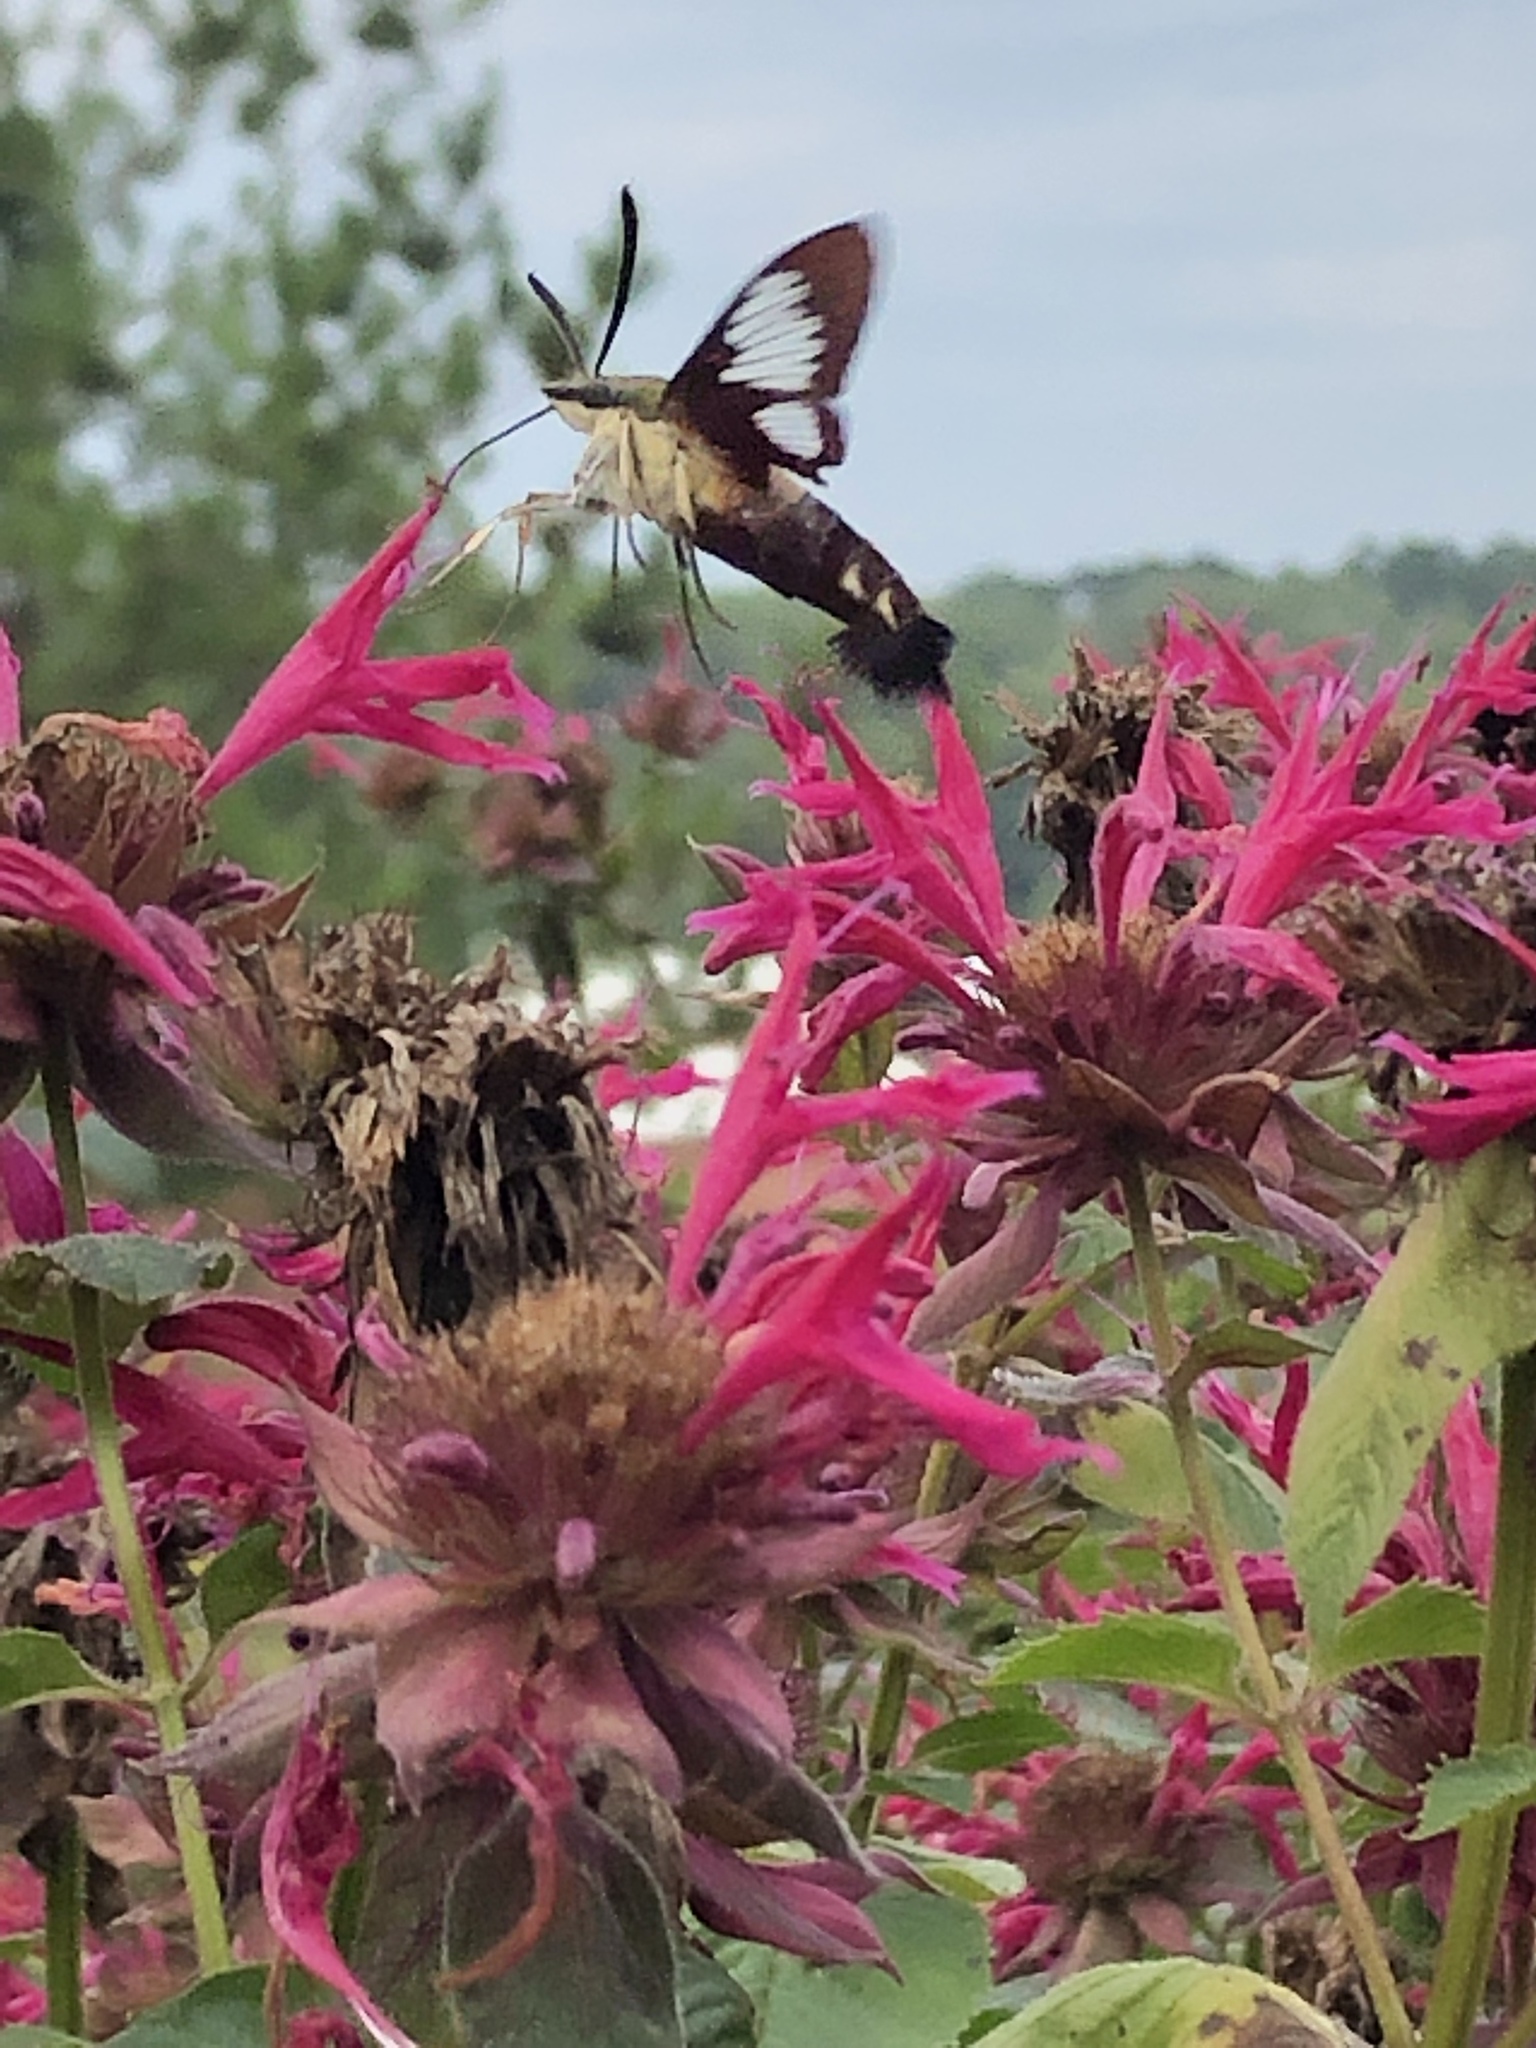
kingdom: Animalia
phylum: Arthropoda
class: Insecta
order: Lepidoptera
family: Sphingidae
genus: Hemaris
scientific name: Hemaris thysbe
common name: Common clear-wing
